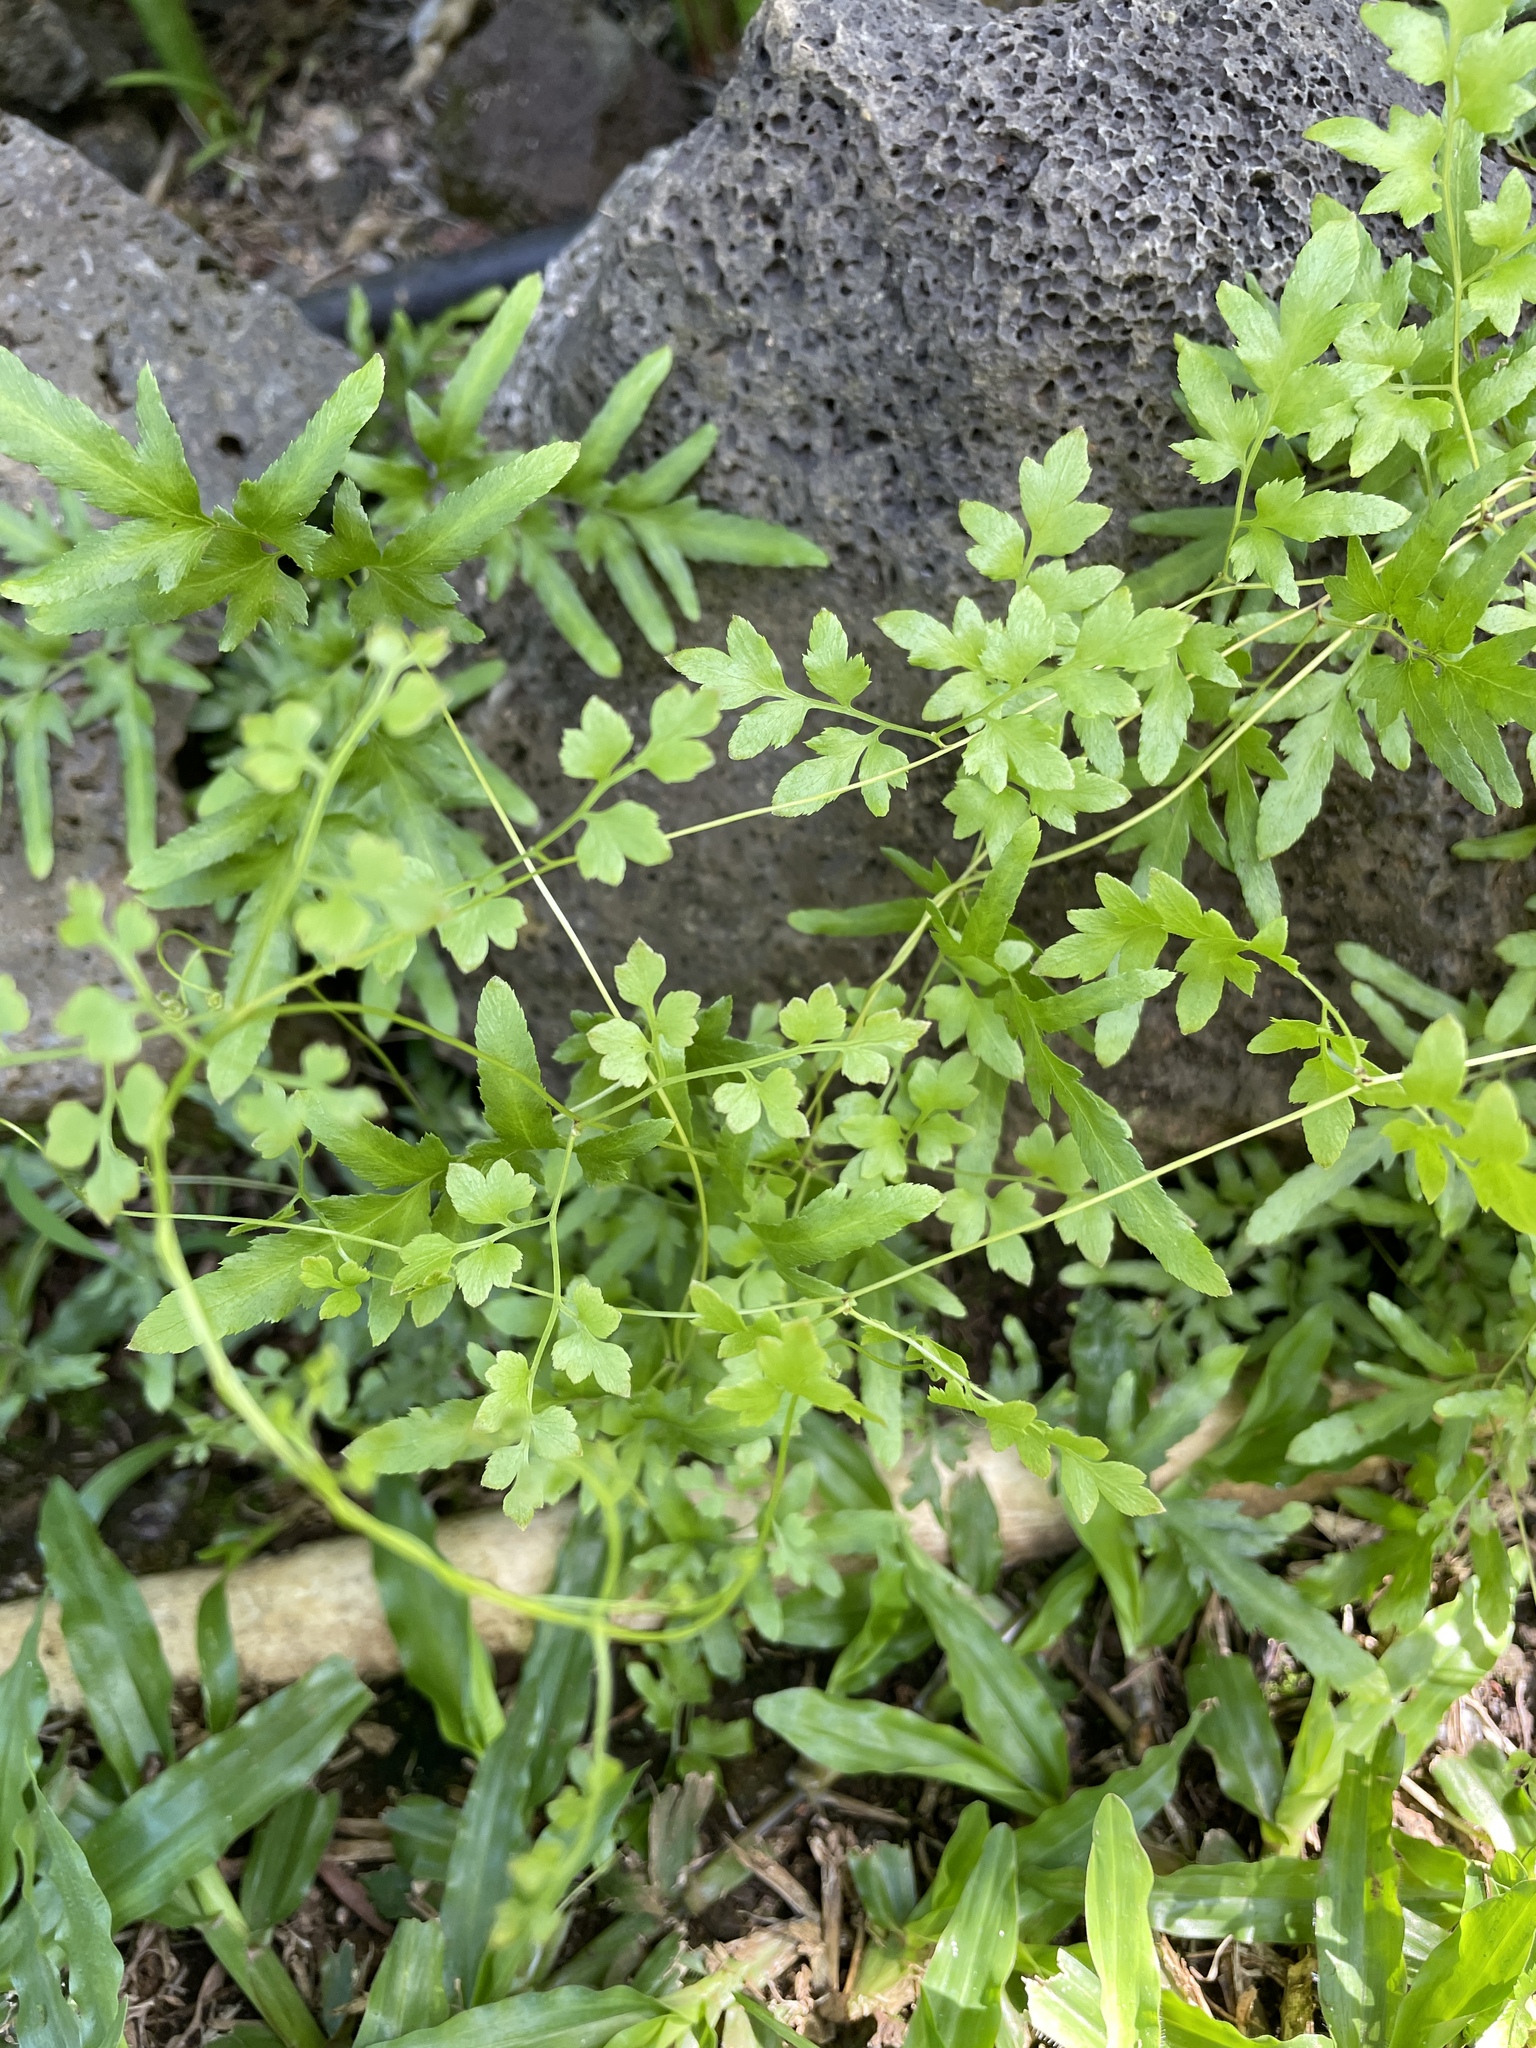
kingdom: Plantae
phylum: Tracheophyta
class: Polypodiopsida
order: Schizaeales
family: Lygodiaceae
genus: Lygodium
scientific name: Lygodium japonicum
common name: Japanese climbing fern
